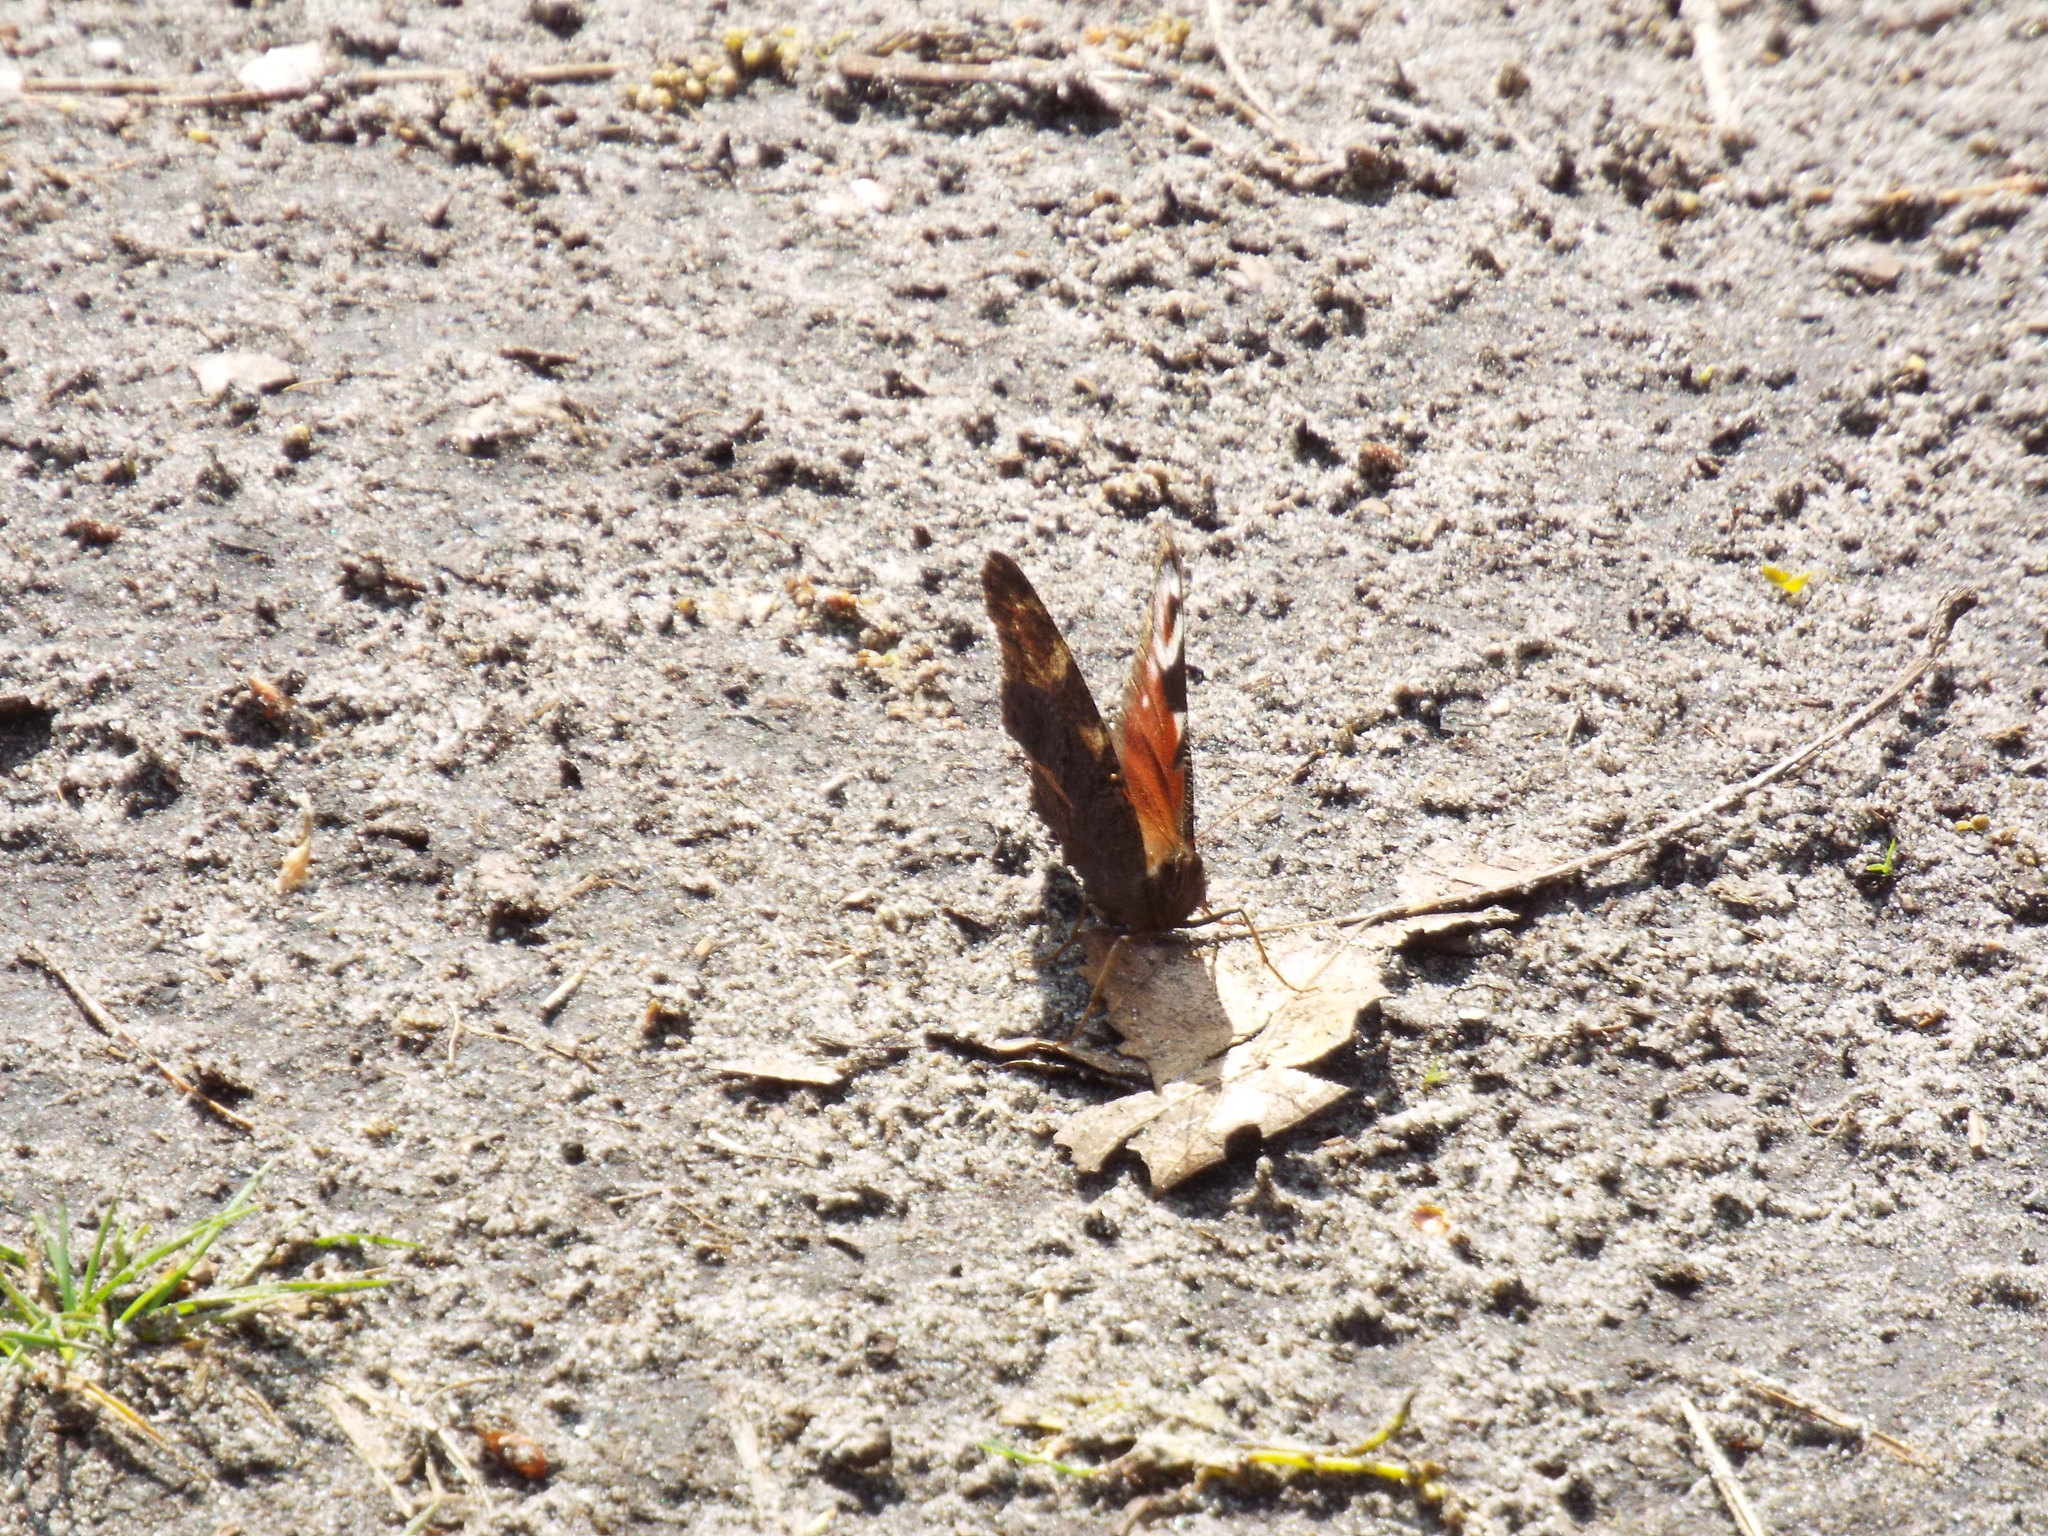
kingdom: Animalia
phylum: Arthropoda
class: Insecta
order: Lepidoptera
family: Nymphalidae
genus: Aglais
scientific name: Aglais io
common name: Peacock
